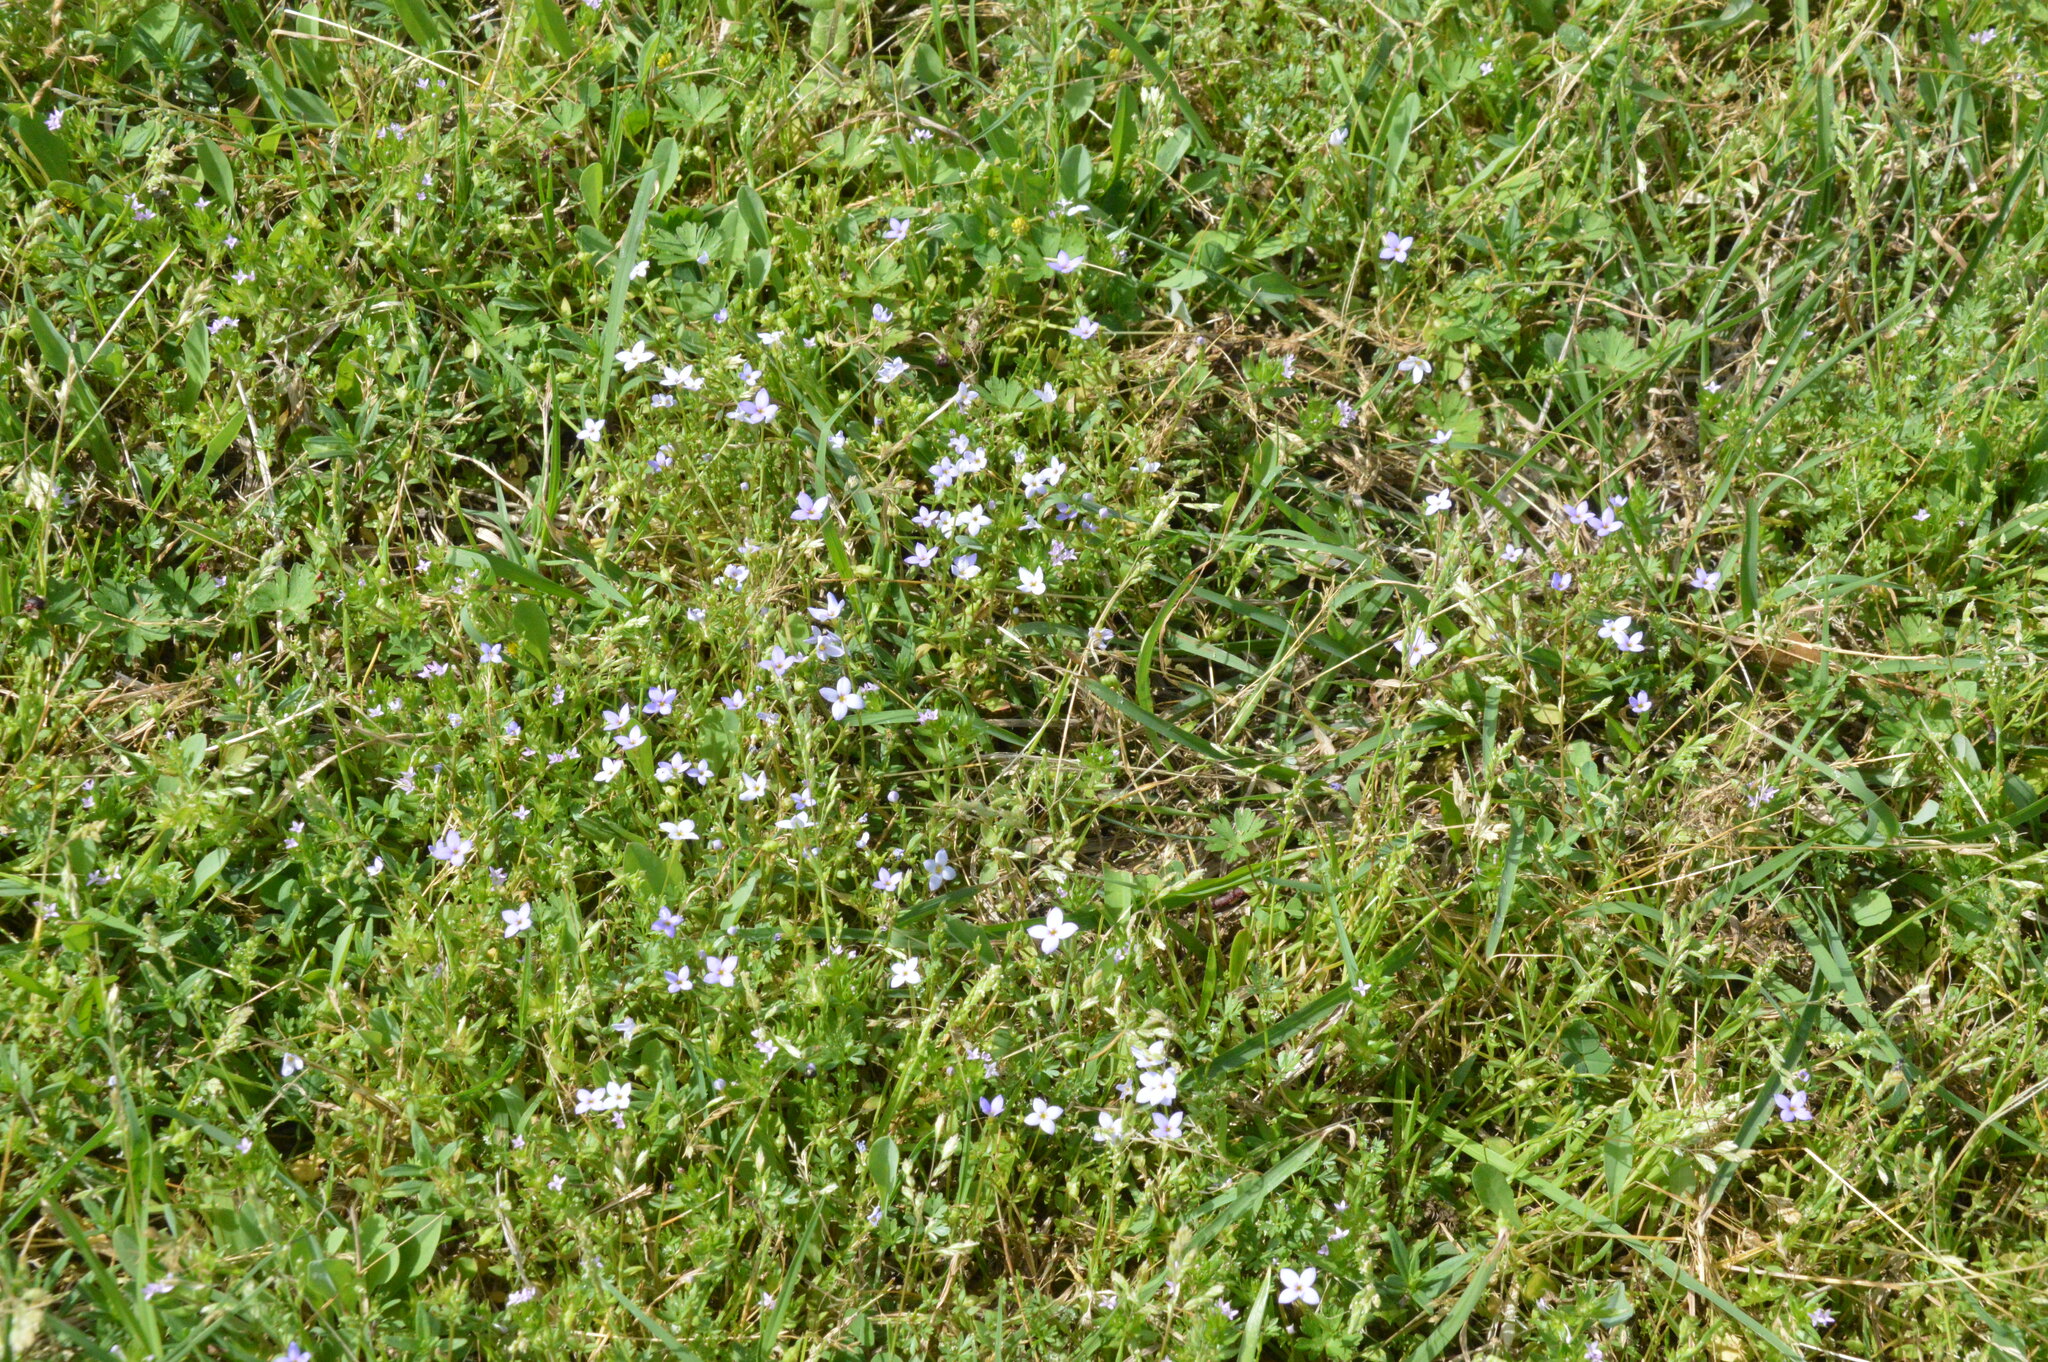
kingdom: Plantae
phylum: Tracheophyta
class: Magnoliopsida
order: Gentianales
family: Rubiaceae
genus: Houstonia
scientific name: Houstonia pusilla
